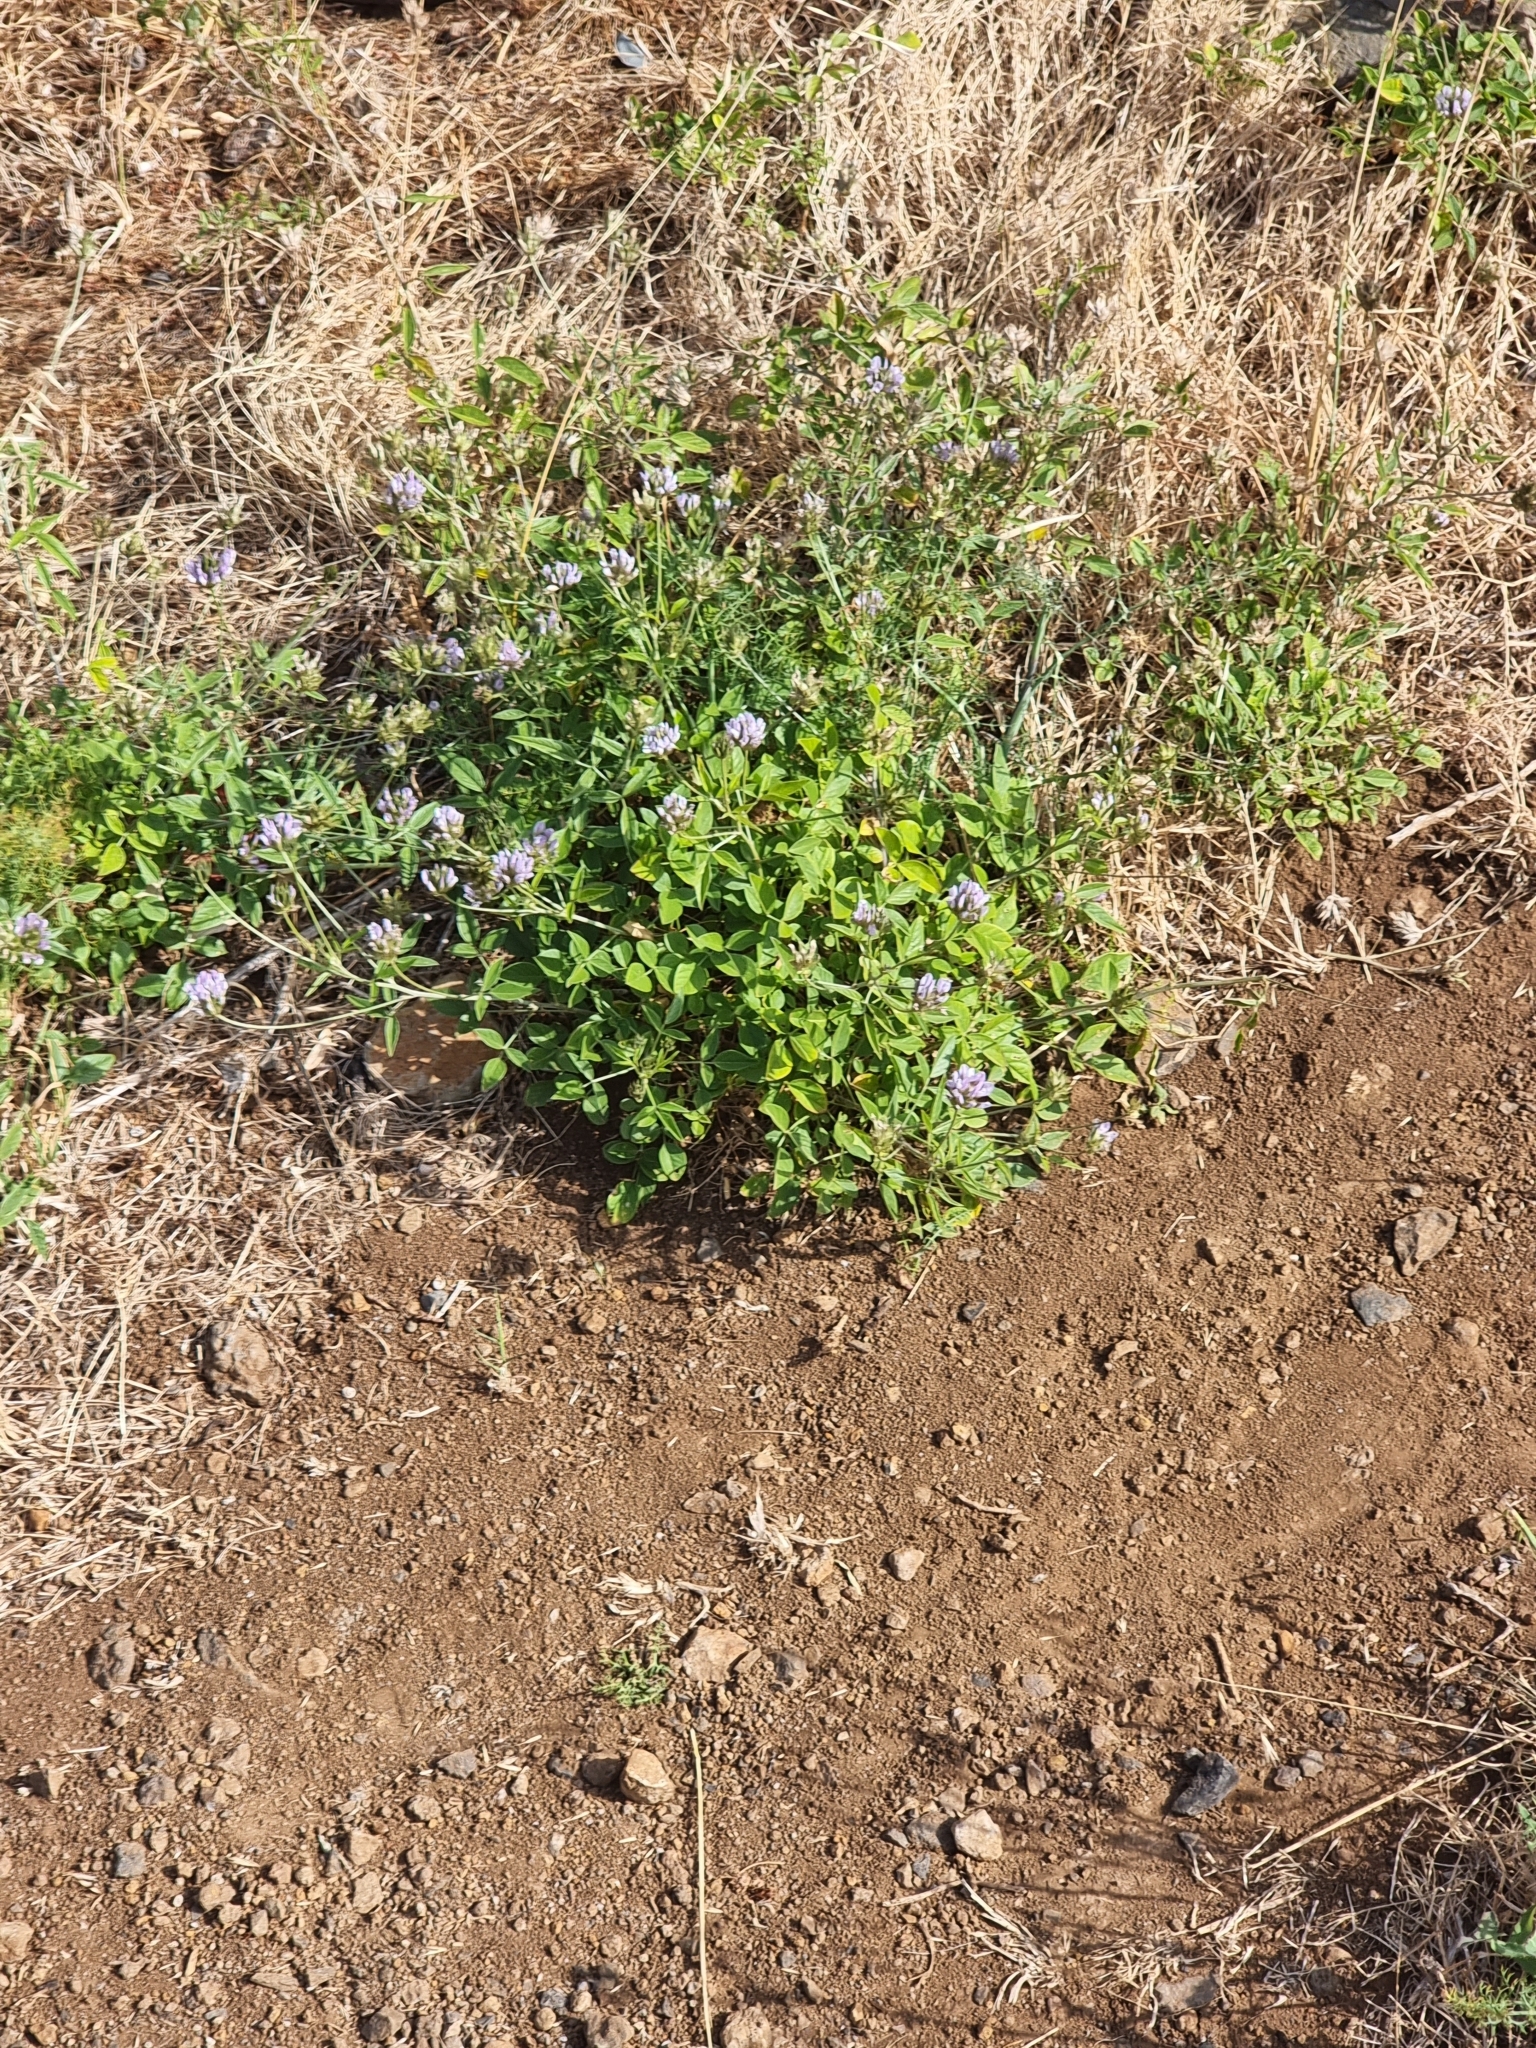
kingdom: Plantae
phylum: Tracheophyta
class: Magnoliopsida
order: Fabales
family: Fabaceae
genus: Bituminaria
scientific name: Bituminaria bituminosa
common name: Arabian pea
